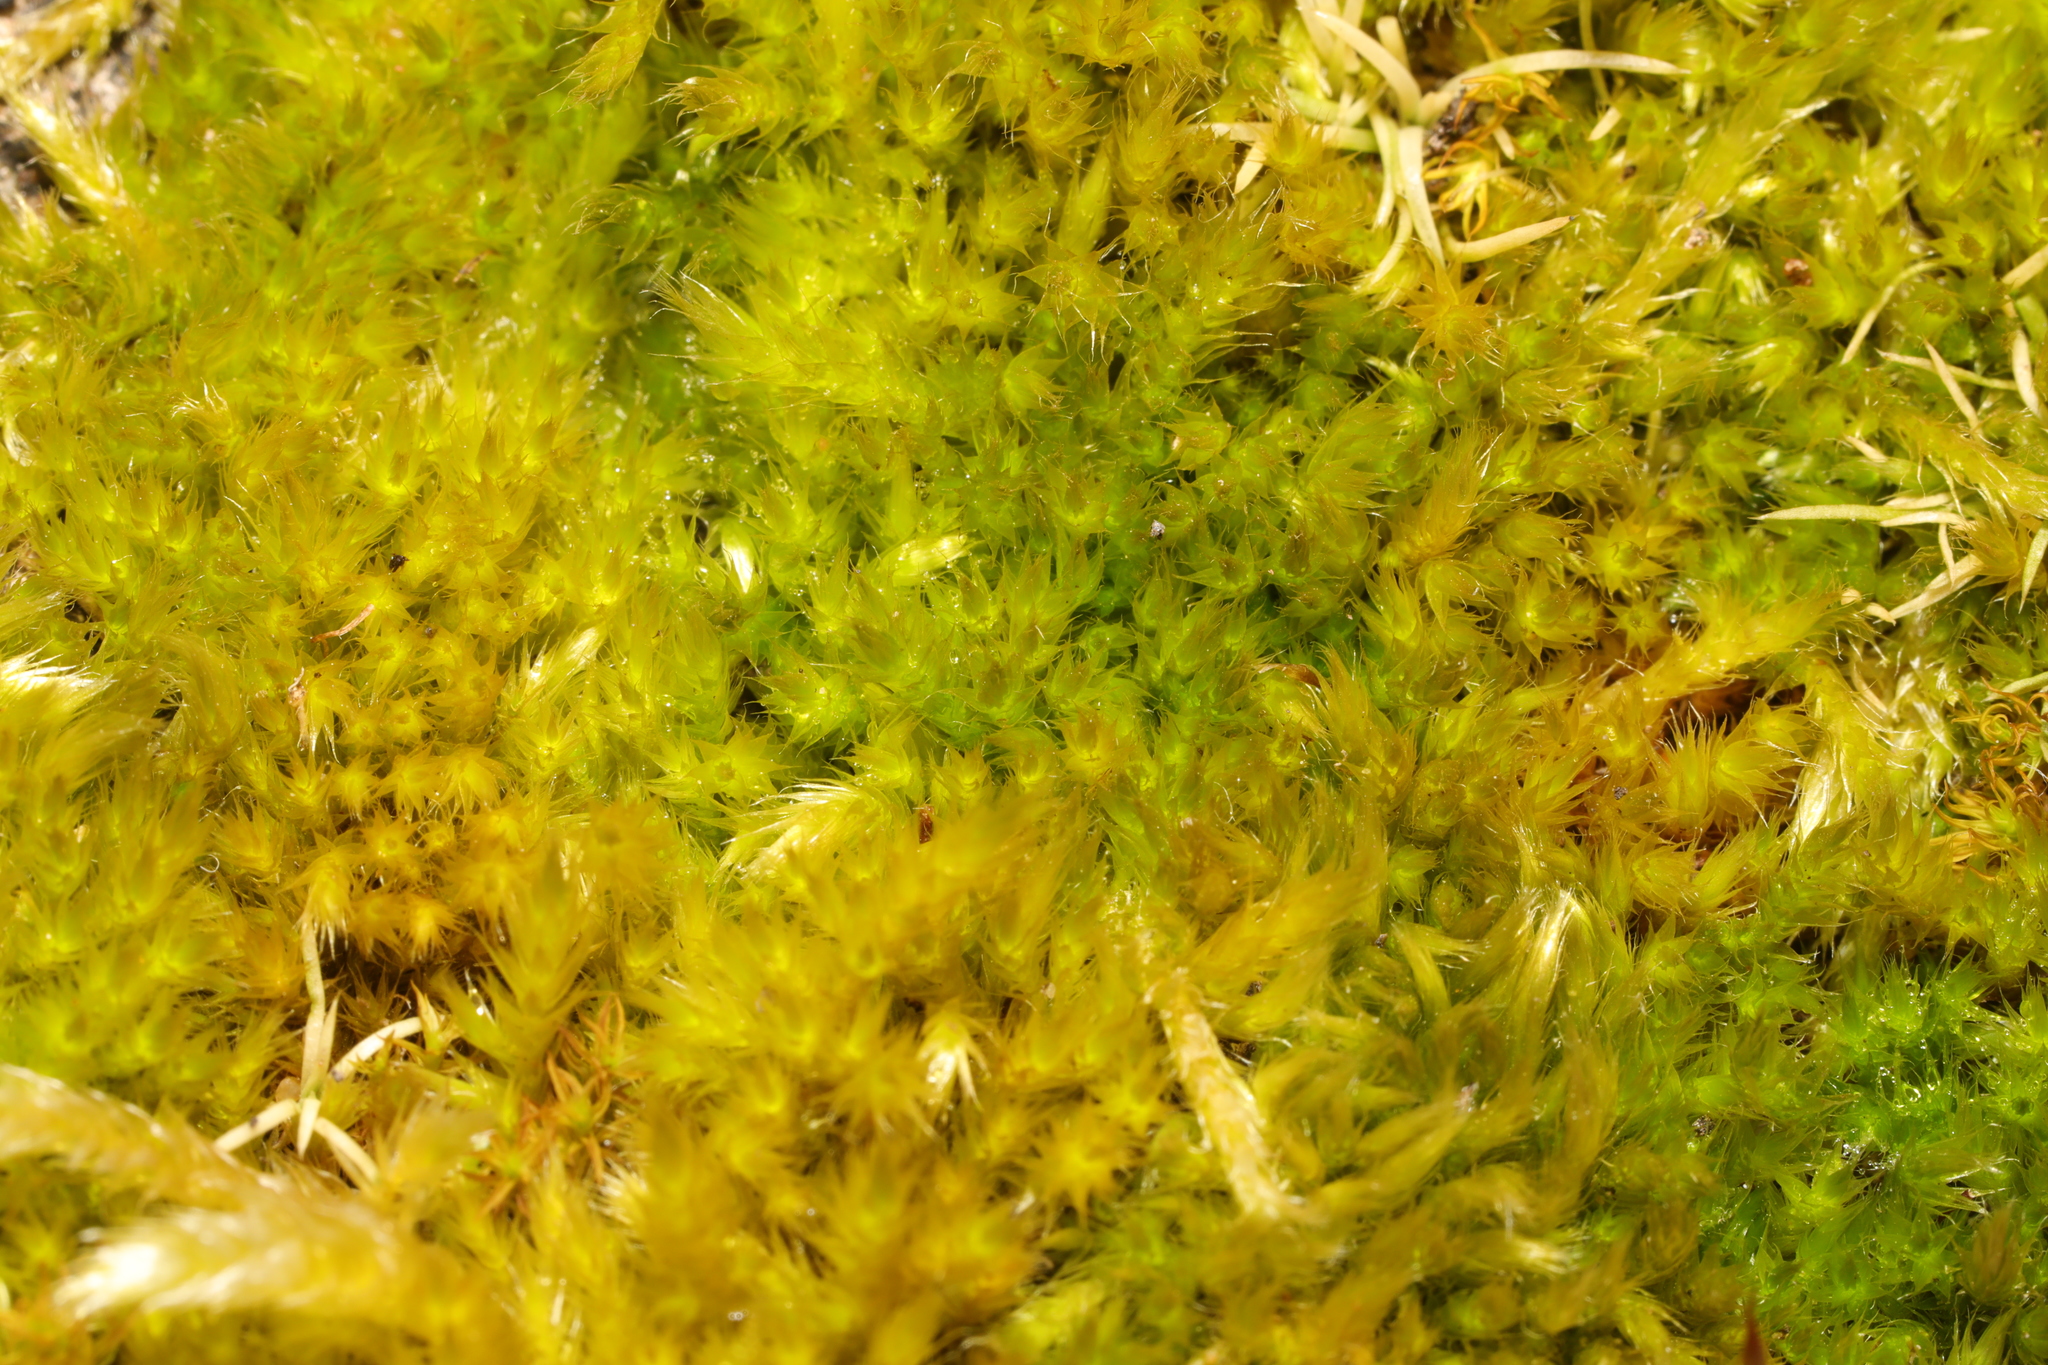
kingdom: Plantae
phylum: Bryophyta
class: Bryopsida
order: Hypnales
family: Brachytheciaceae
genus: Homalothecium
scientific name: Homalothecium sericeum
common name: Silky wall feather-moss
